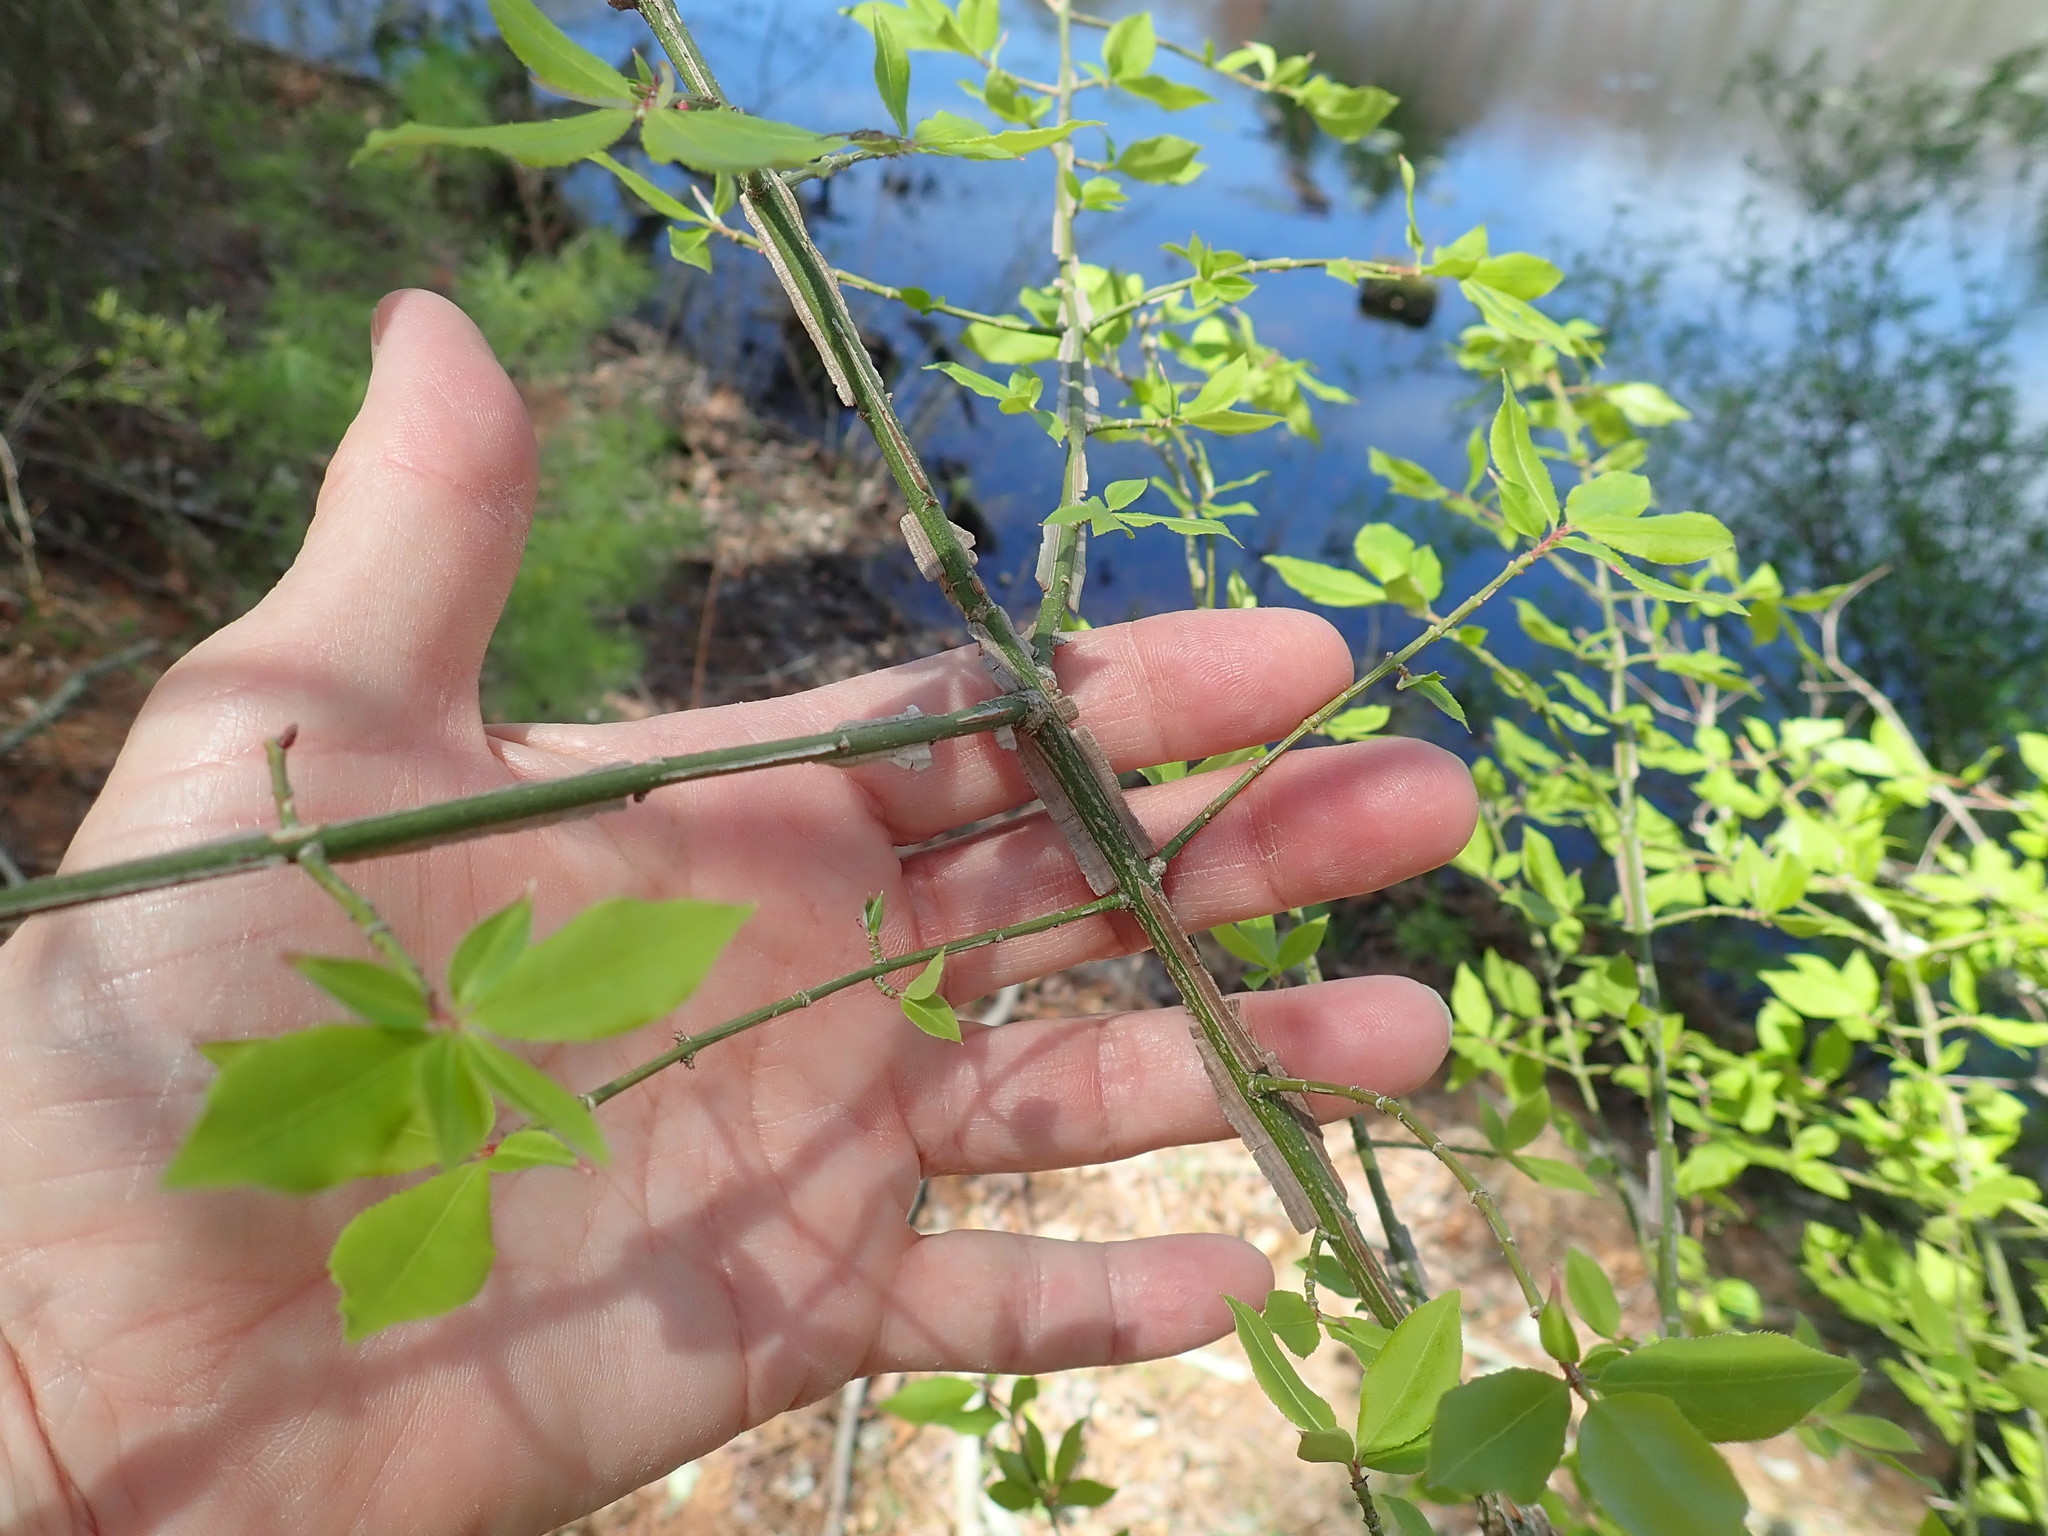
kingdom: Plantae
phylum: Tracheophyta
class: Magnoliopsida
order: Celastrales
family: Celastraceae
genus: Euonymus
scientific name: Euonymus alatus
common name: Winged euonymus
